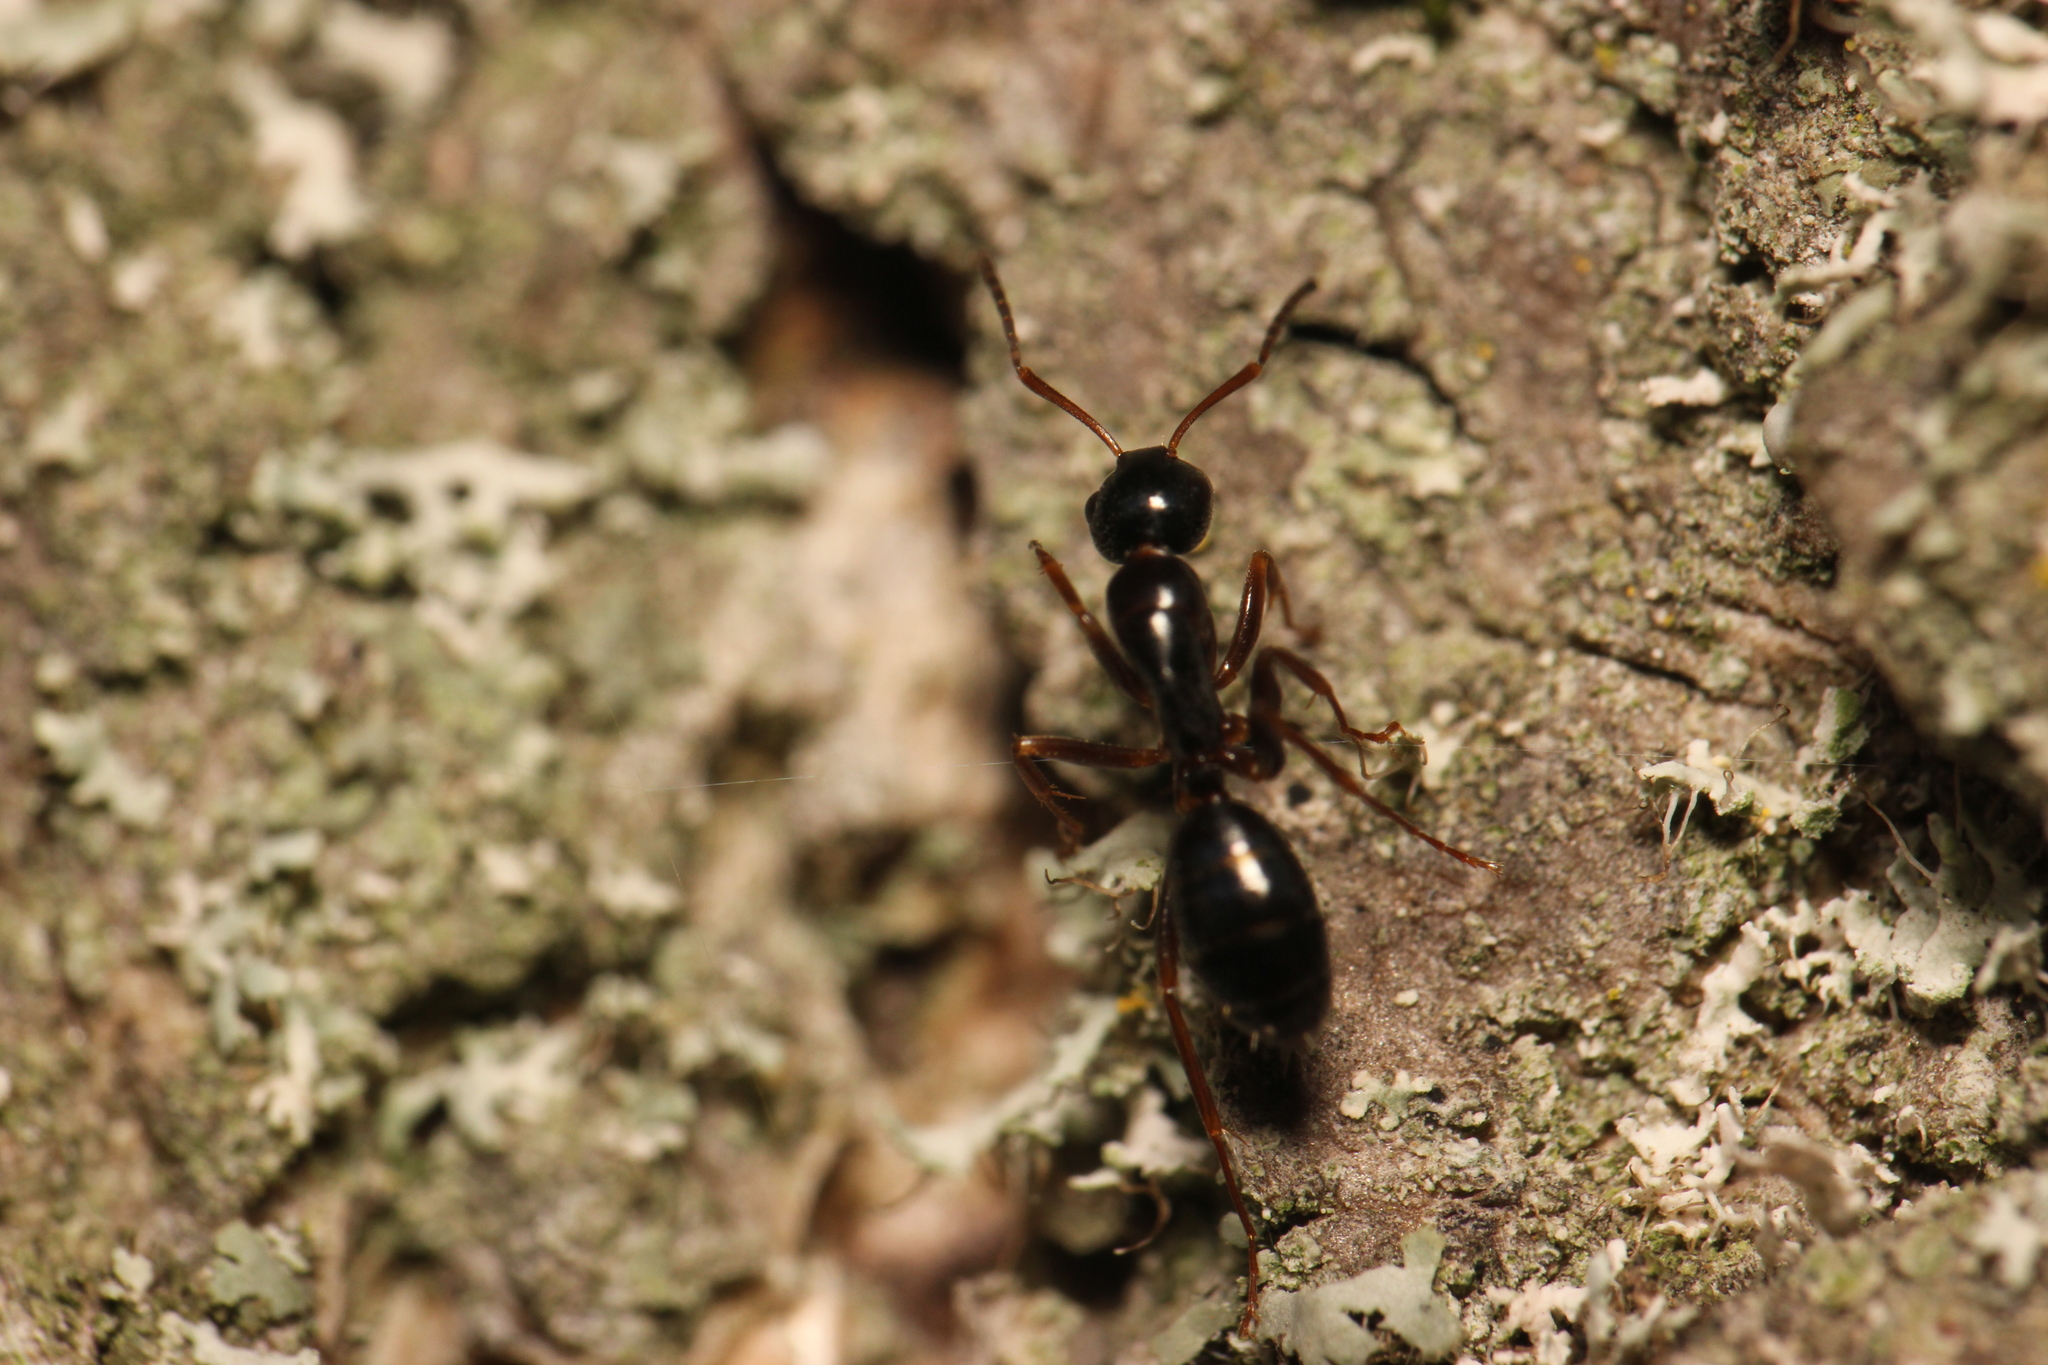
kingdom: Animalia
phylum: Arthropoda
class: Insecta
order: Hymenoptera
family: Formicidae
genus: Camponotus
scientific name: Camponotus fallax
